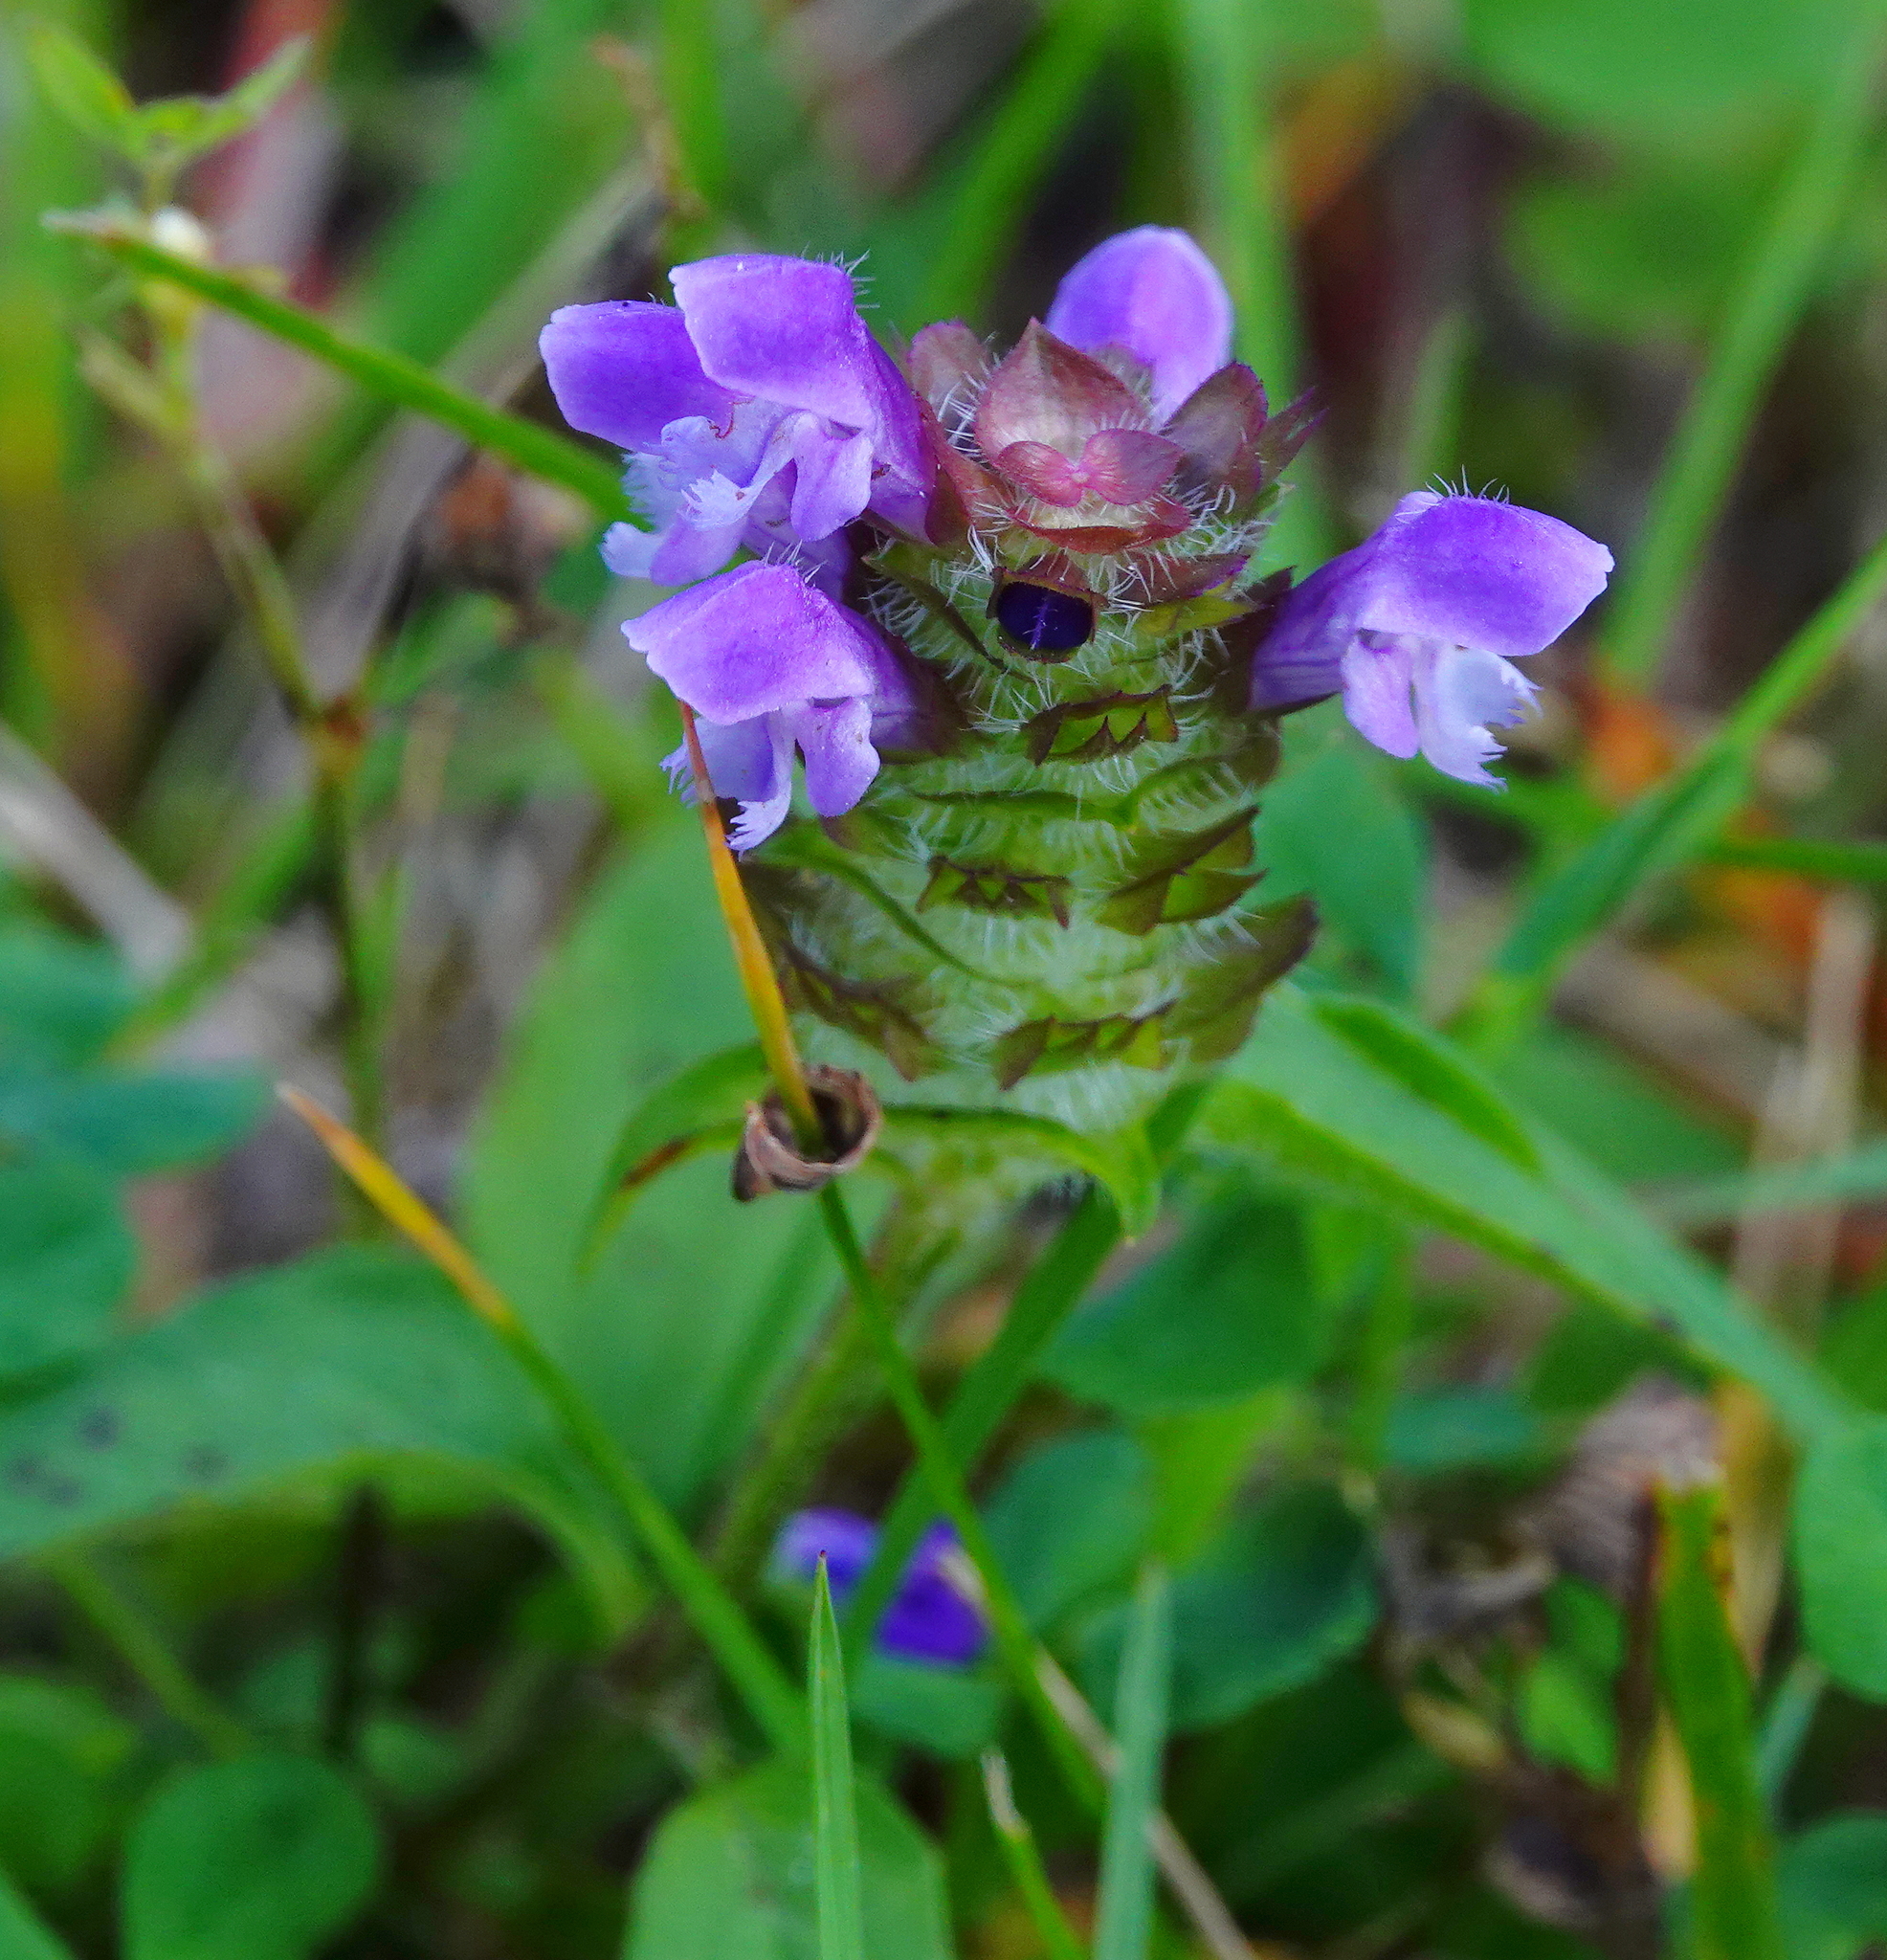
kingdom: Plantae
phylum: Tracheophyta
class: Magnoliopsida
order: Lamiales
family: Lamiaceae
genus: Prunella
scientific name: Prunella vulgaris
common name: Heal-all
